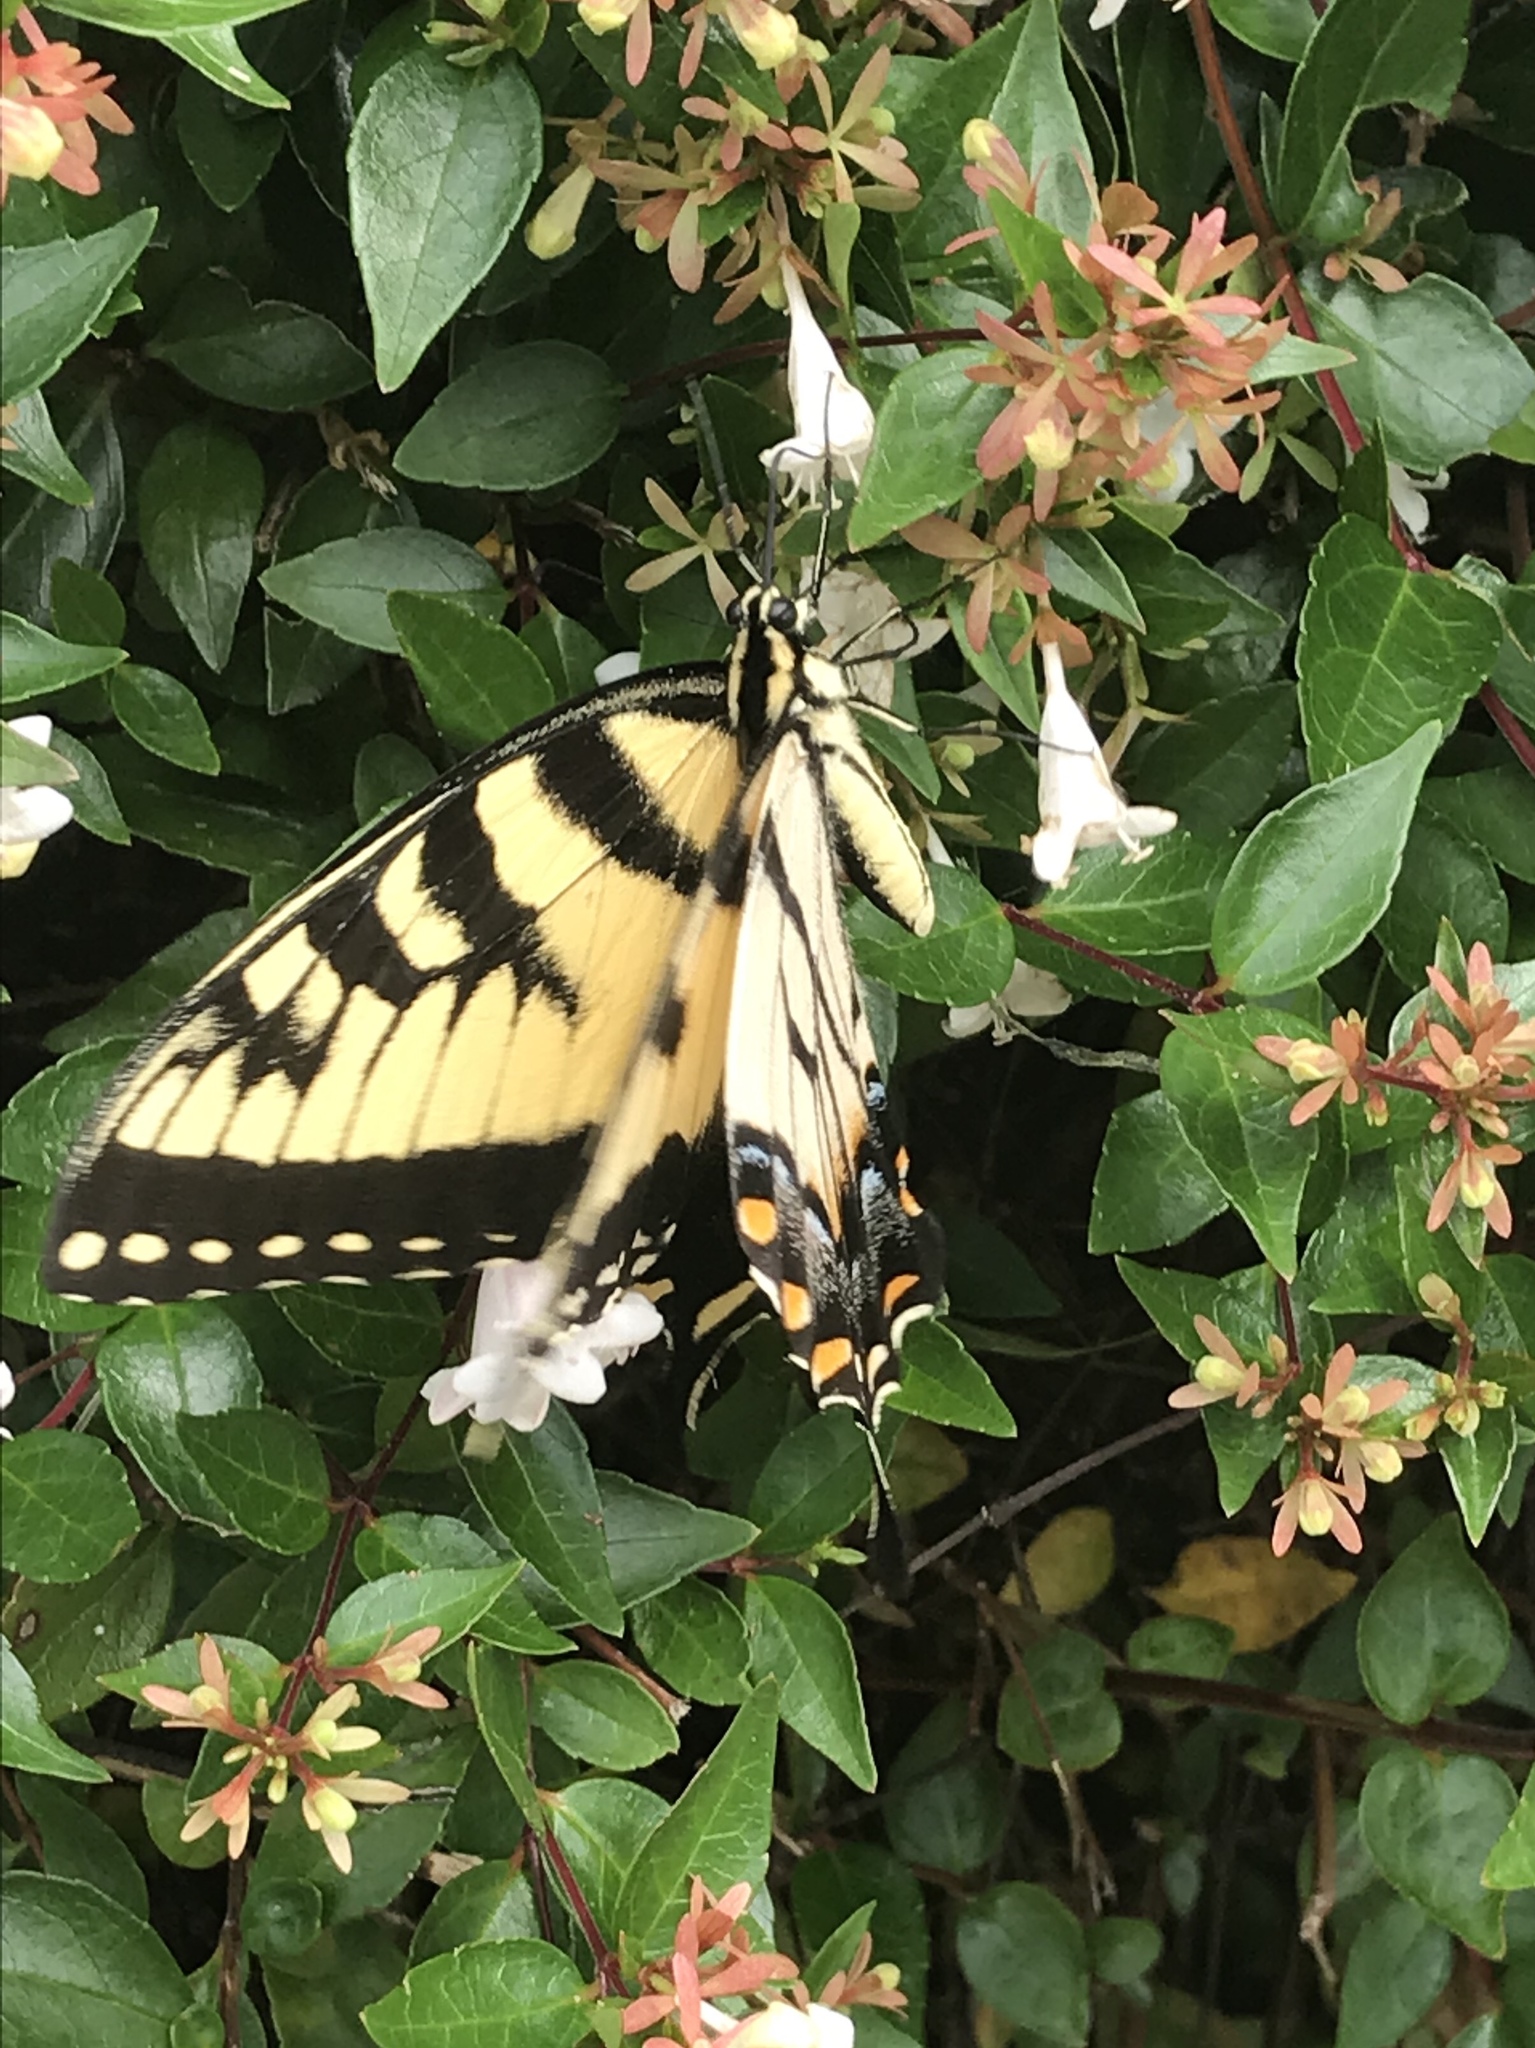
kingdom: Animalia
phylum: Arthropoda
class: Insecta
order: Lepidoptera
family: Papilionidae
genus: Papilio
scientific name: Papilio glaucus
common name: Tiger swallowtail
